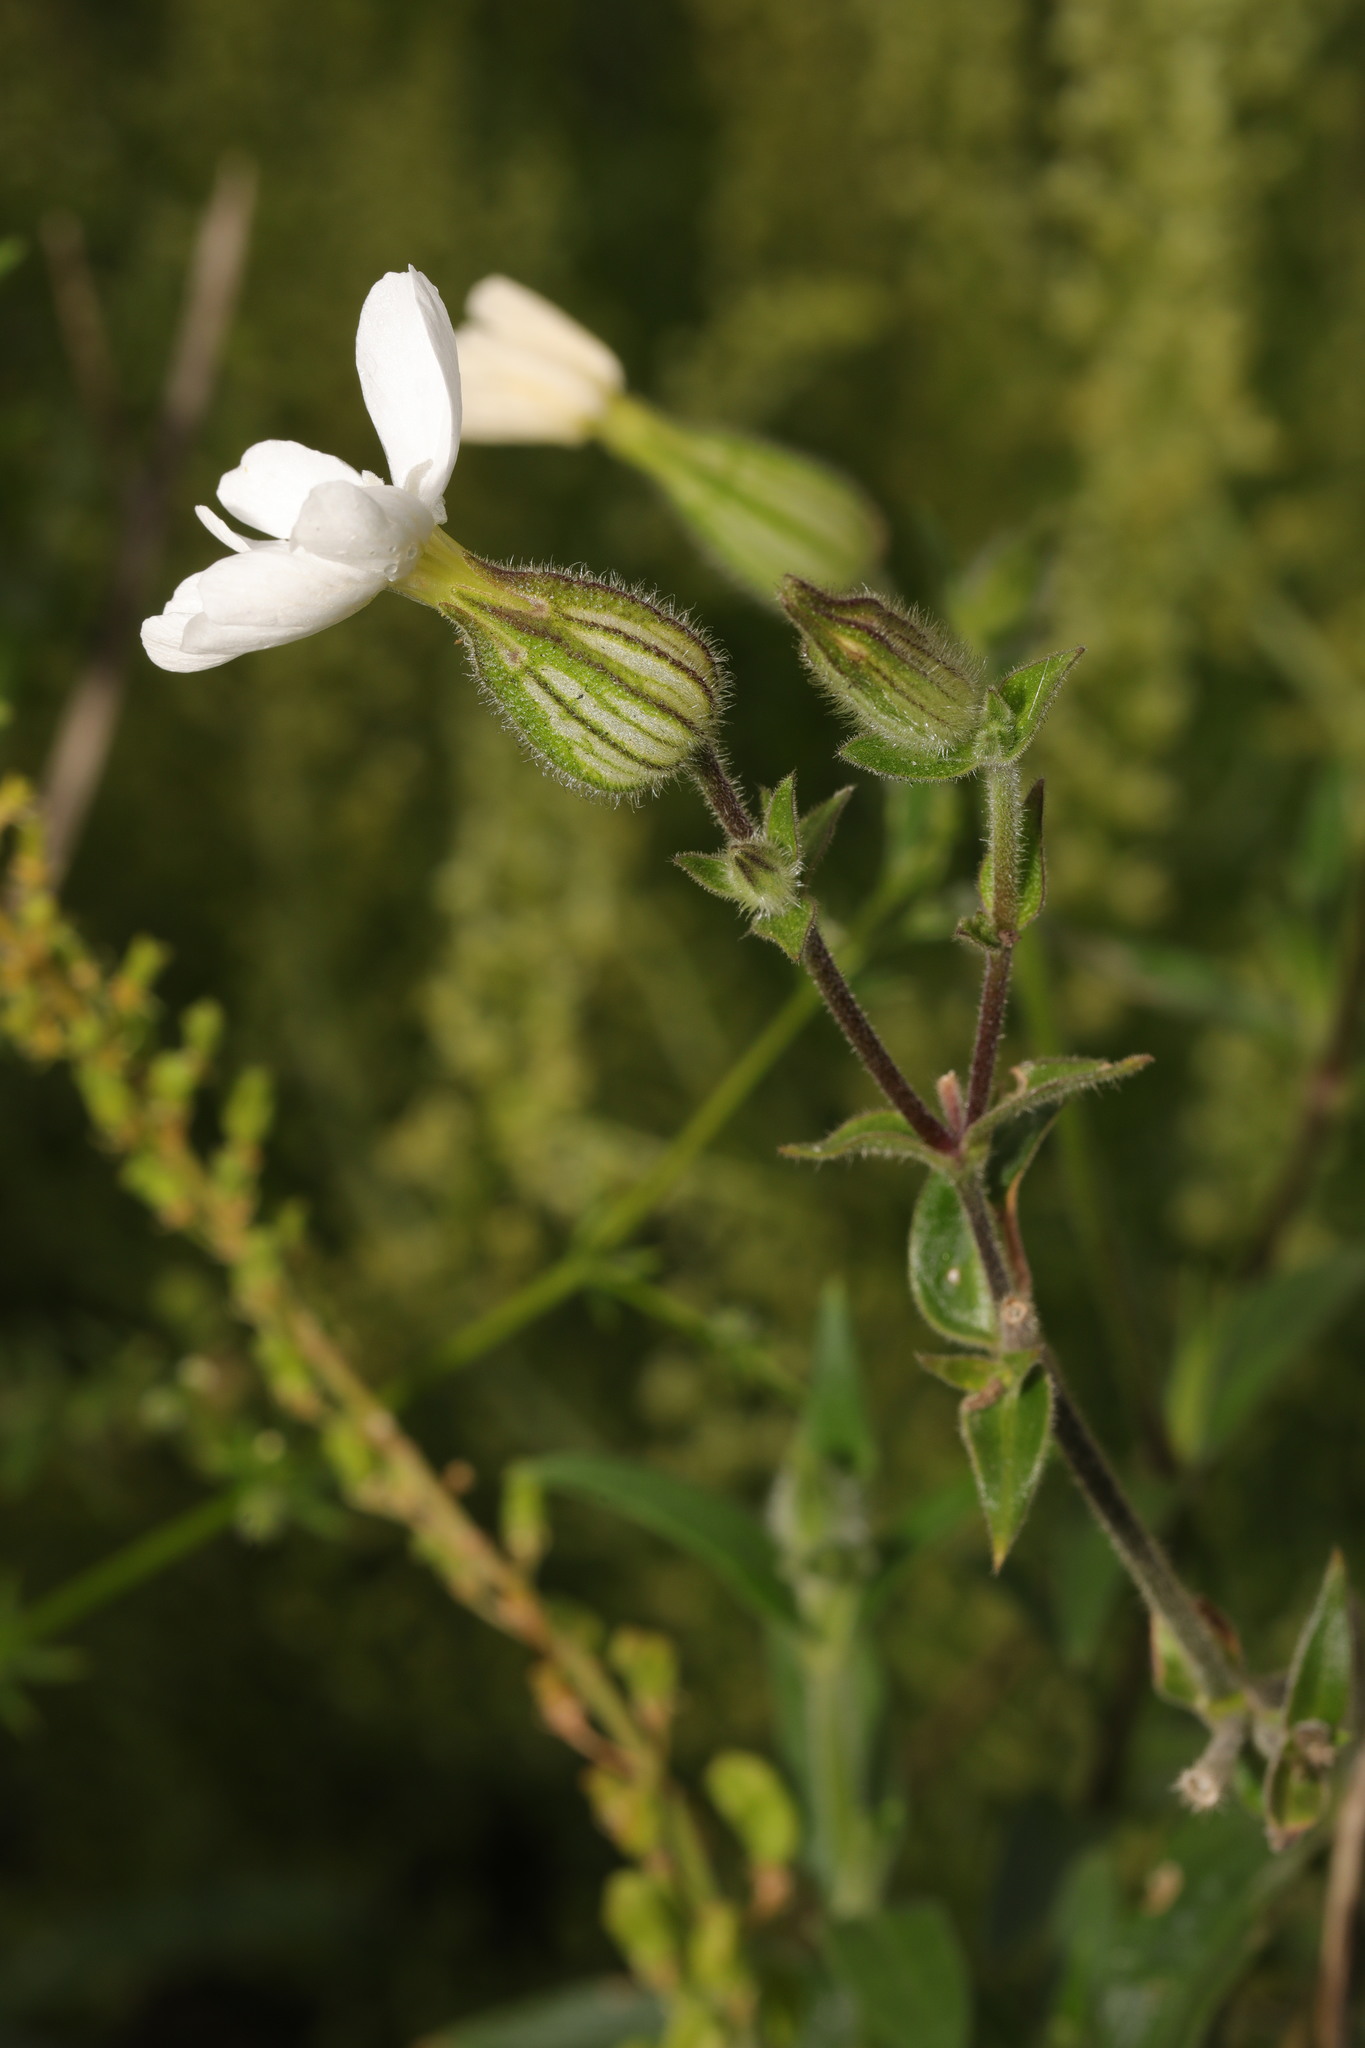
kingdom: Plantae
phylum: Tracheophyta
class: Magnoliopsida
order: Caryophyllales
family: Caryophyllaceae
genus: Silene
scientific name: Silene latifolia
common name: White campion
